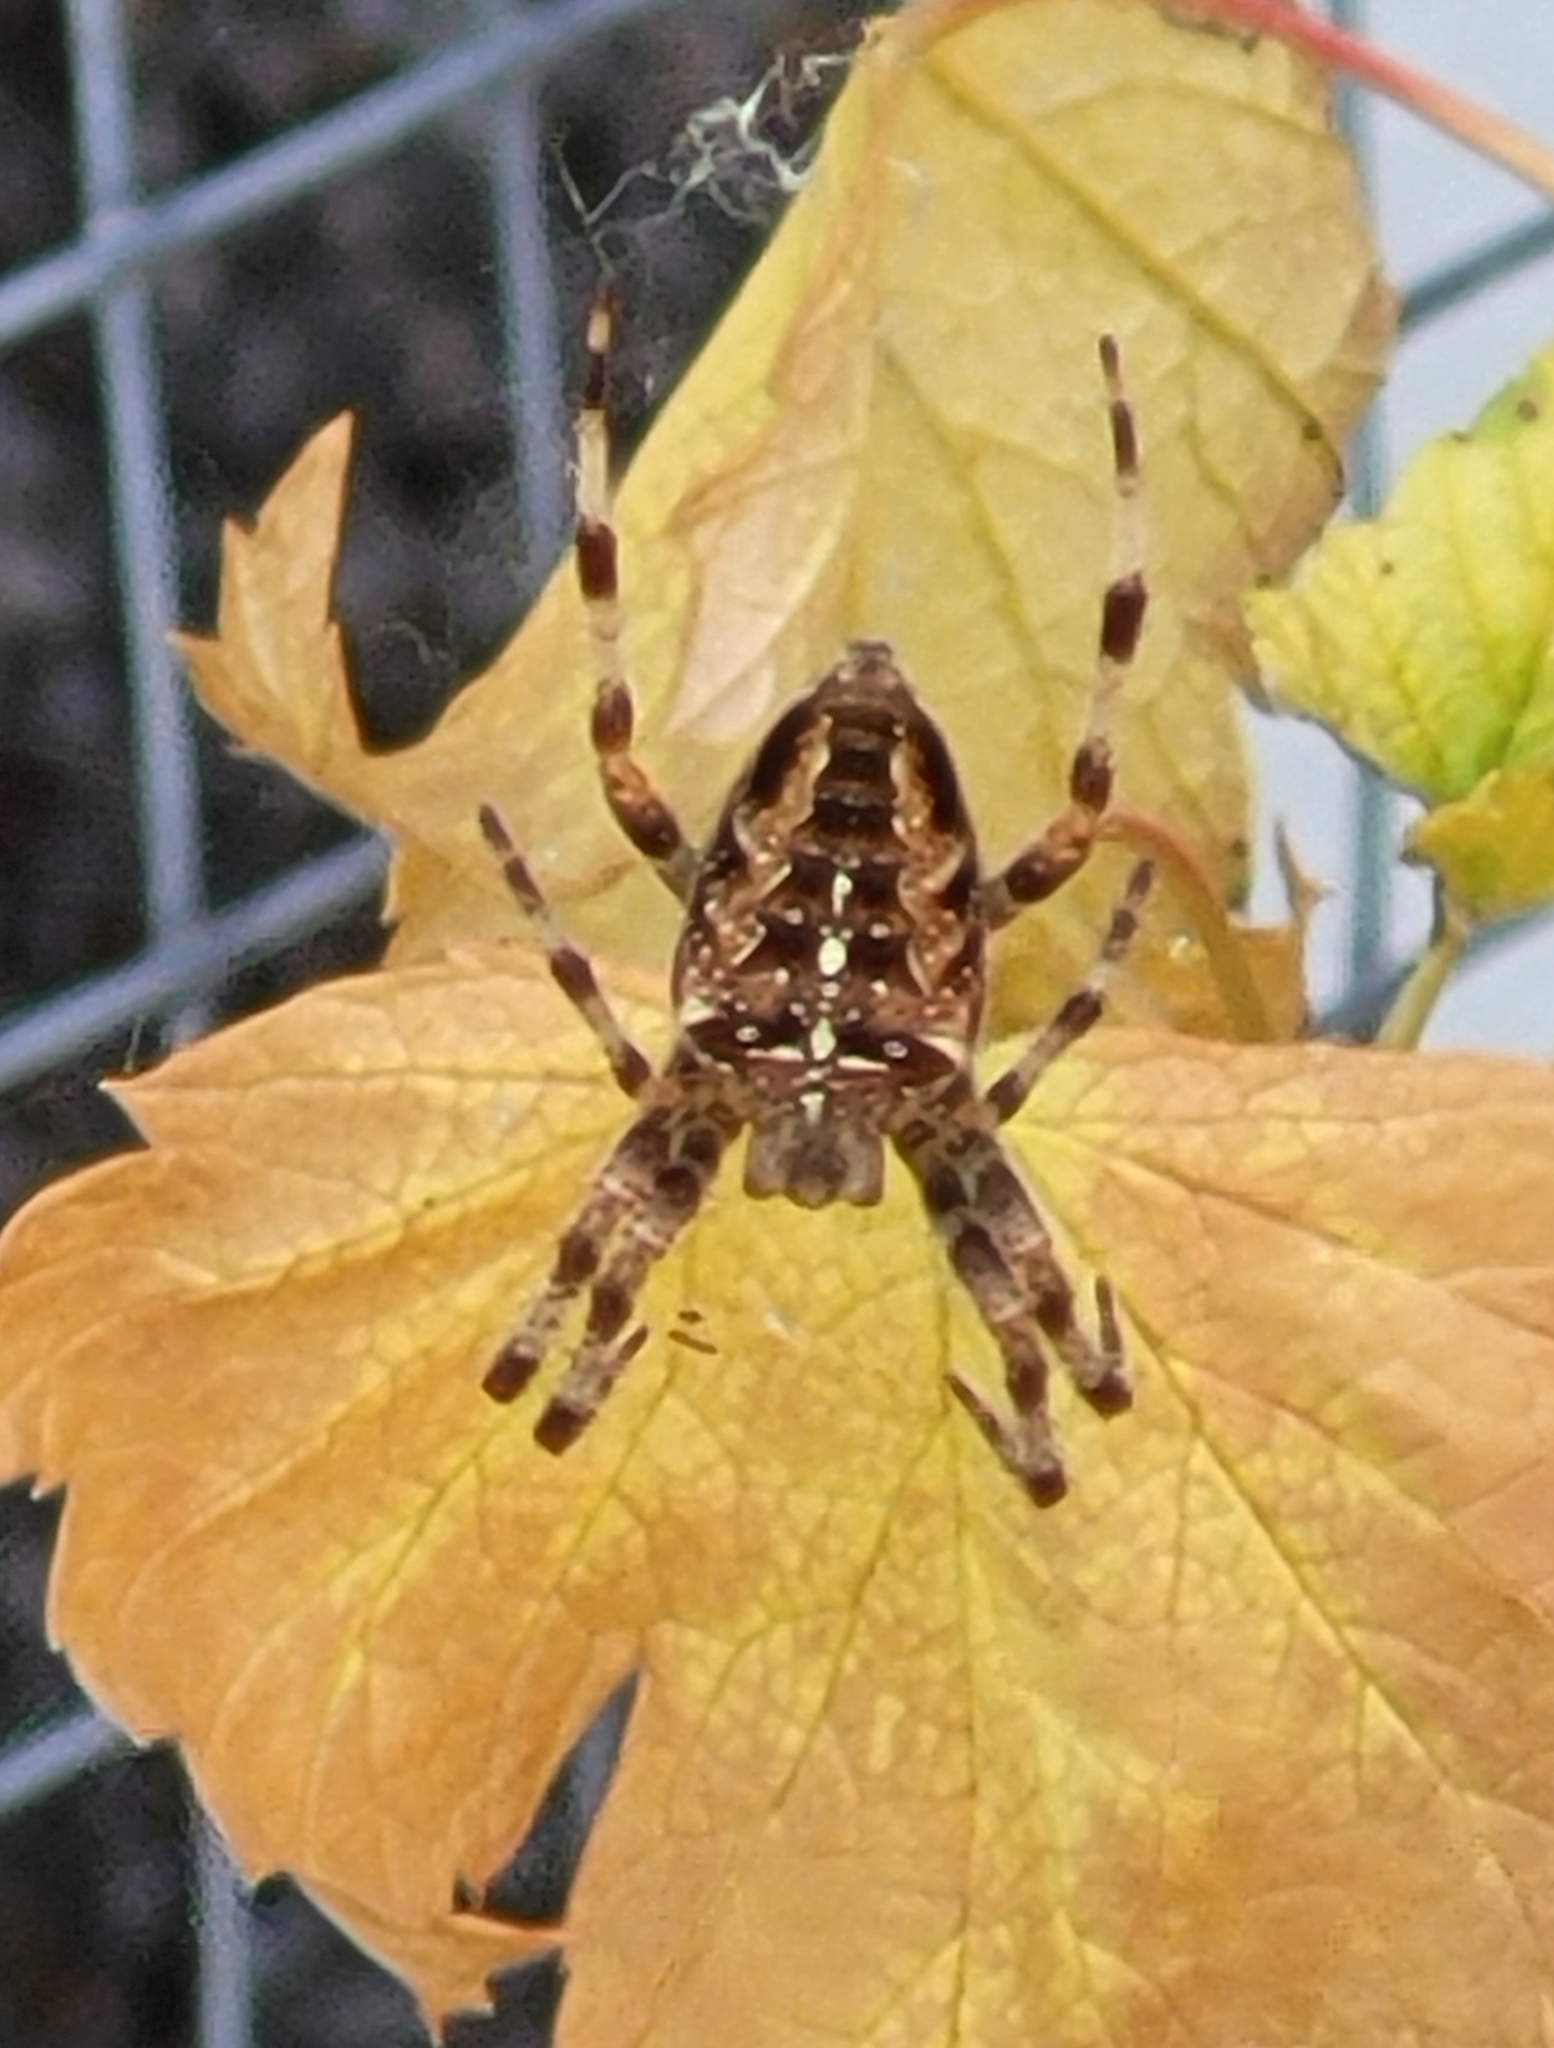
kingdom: Animalia
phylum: Arthropoda
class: Arachnida
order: Araneae
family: Araneidae
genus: Araneus
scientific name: Araneus diadematus
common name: Cross orbweaver
